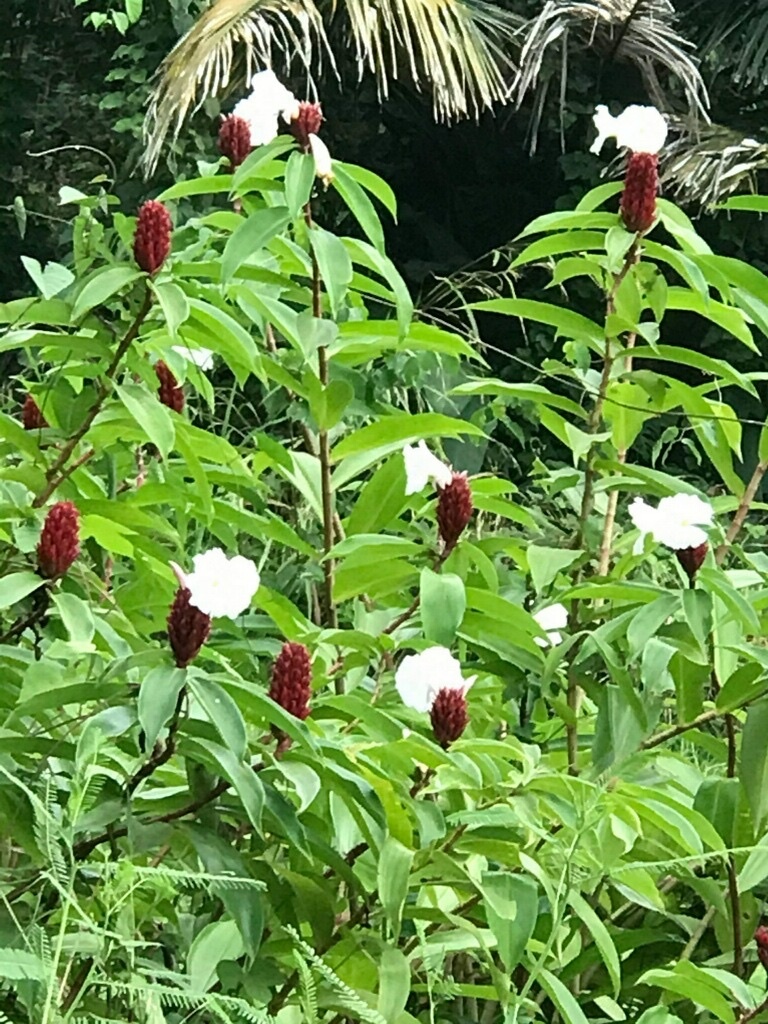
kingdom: Plantae
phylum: Tracheophyta
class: Liliopsida
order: Zingiberales
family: Costaceae
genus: Hellenia
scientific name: Hellenia speciosa
